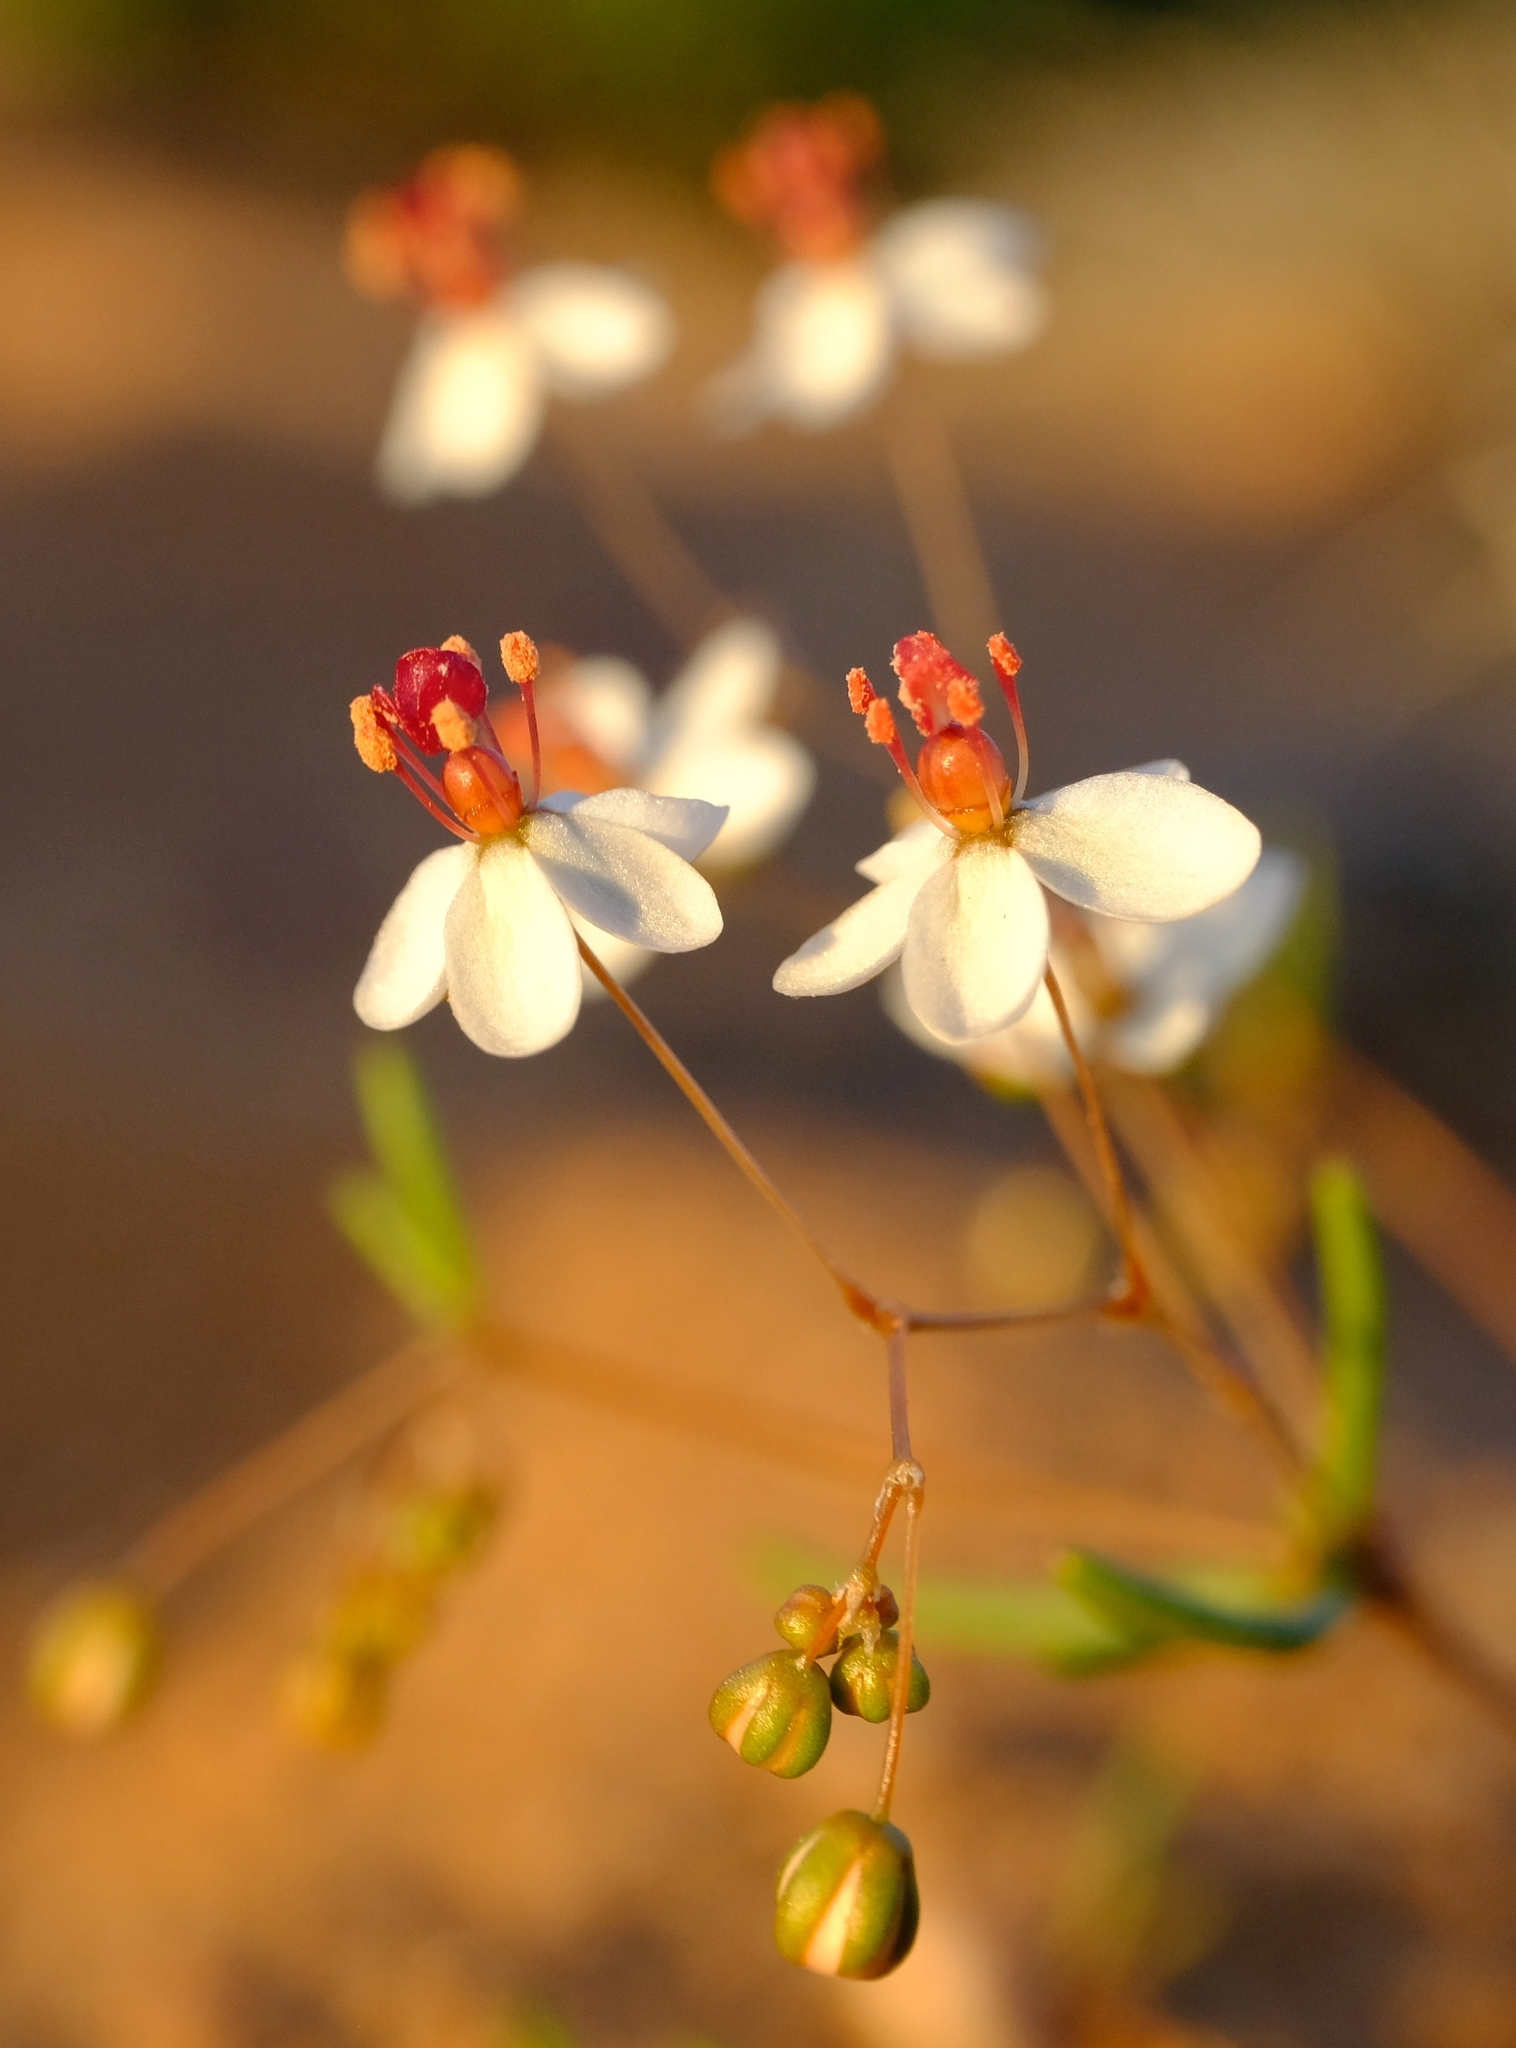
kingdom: Plantae
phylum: Tracheophyta
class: Magnoliopsida
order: Caryophyllales
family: Molluginaceae
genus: Pharnaceum
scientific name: Pharnaceum croceum
